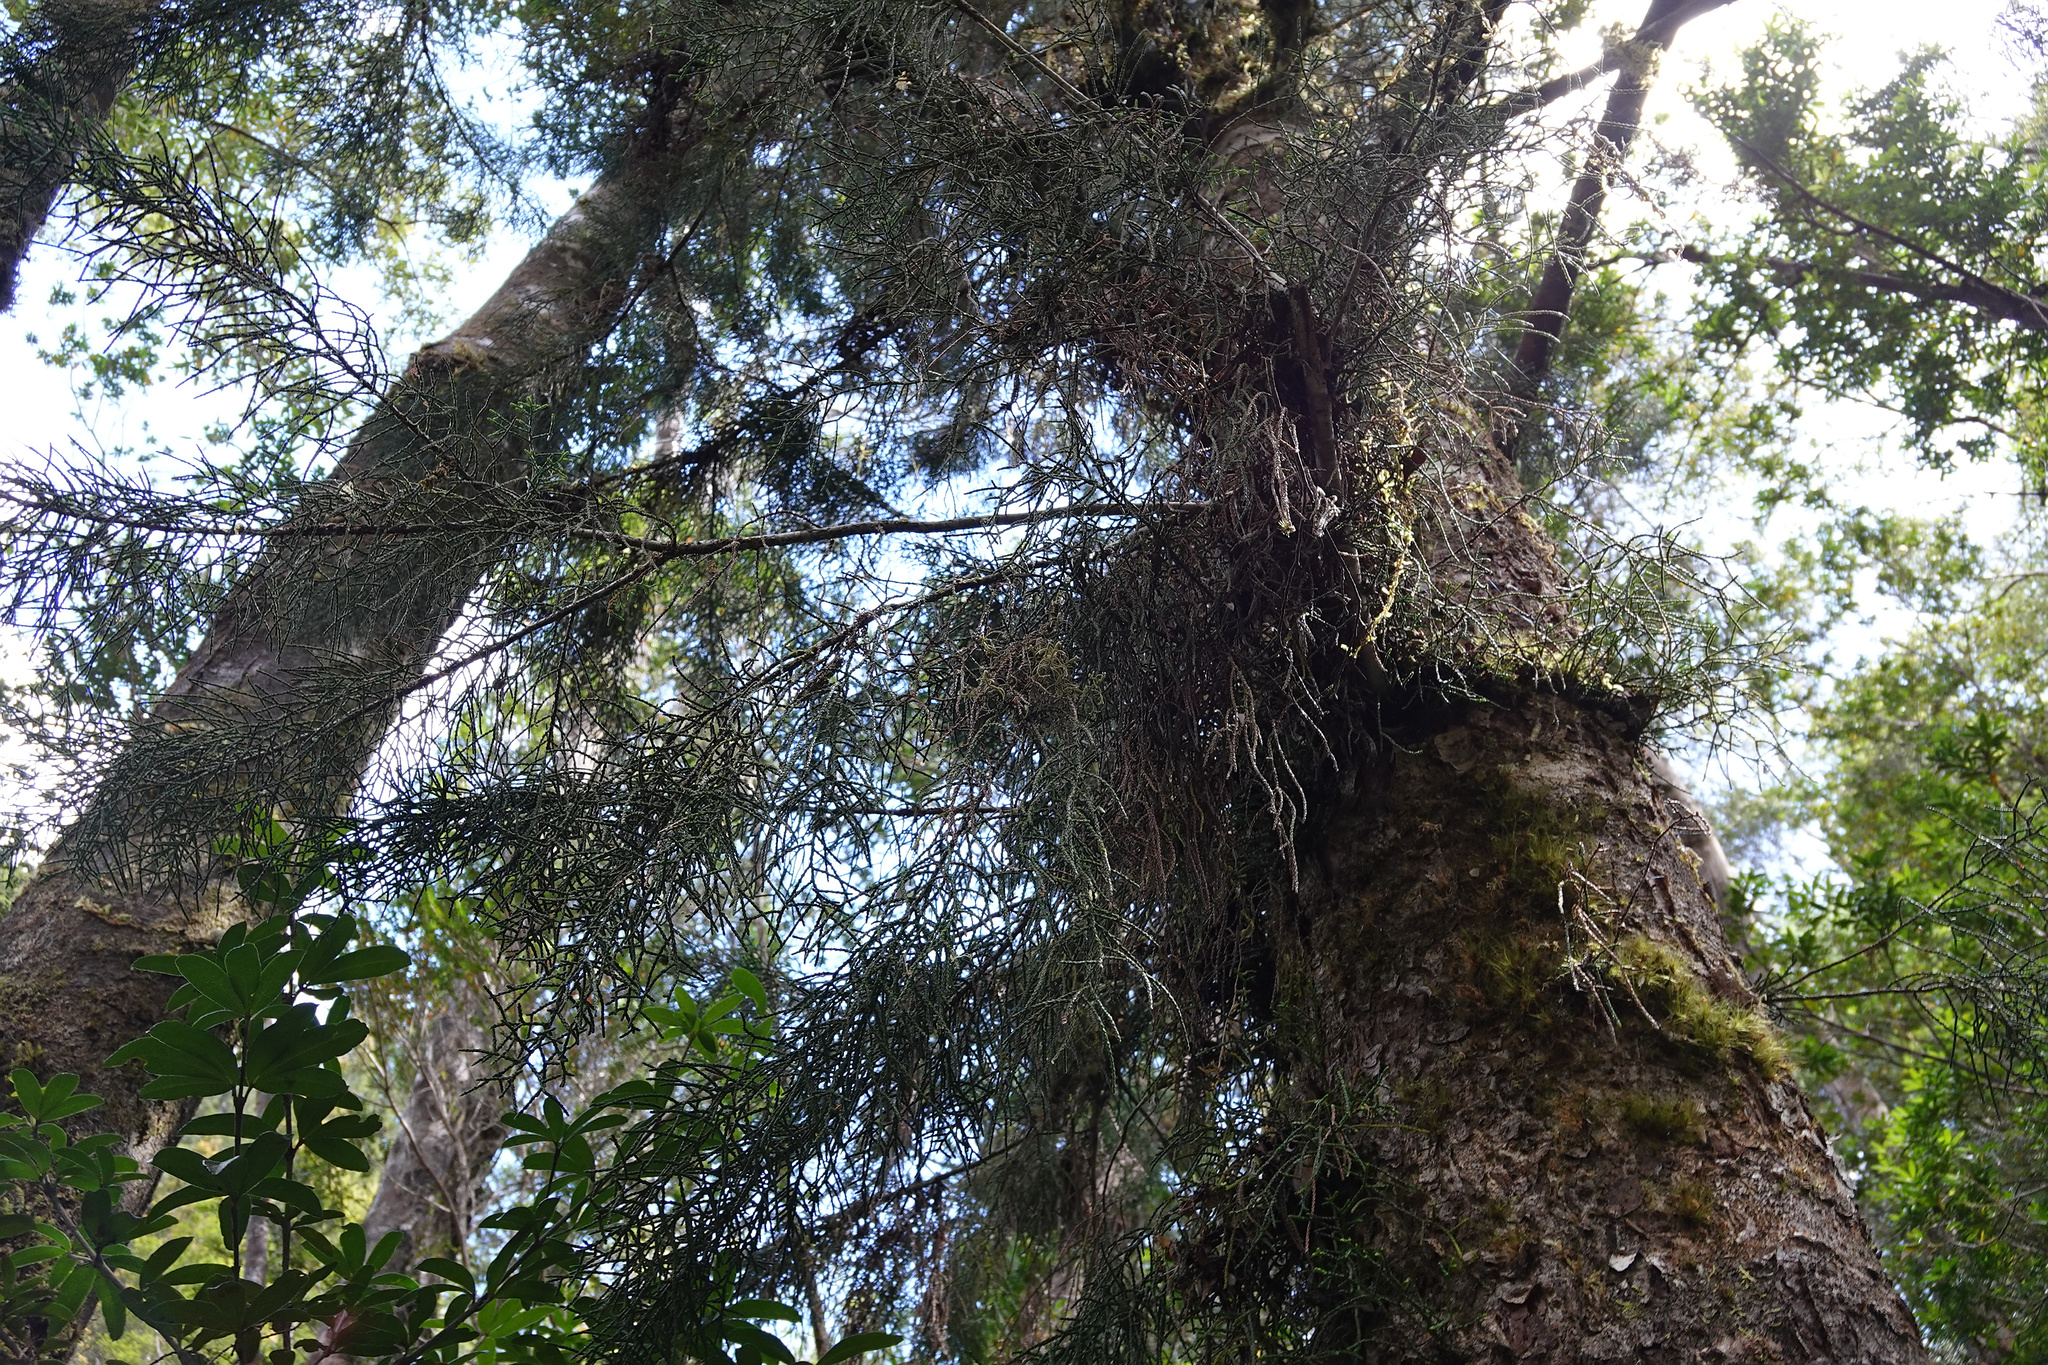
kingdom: Plantae
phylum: Tracheophyta
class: Pinopsida
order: Pinales
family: Podocarpaceae
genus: Lagarostrobos
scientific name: Lagarostrobos franklinii
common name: Huon pine
